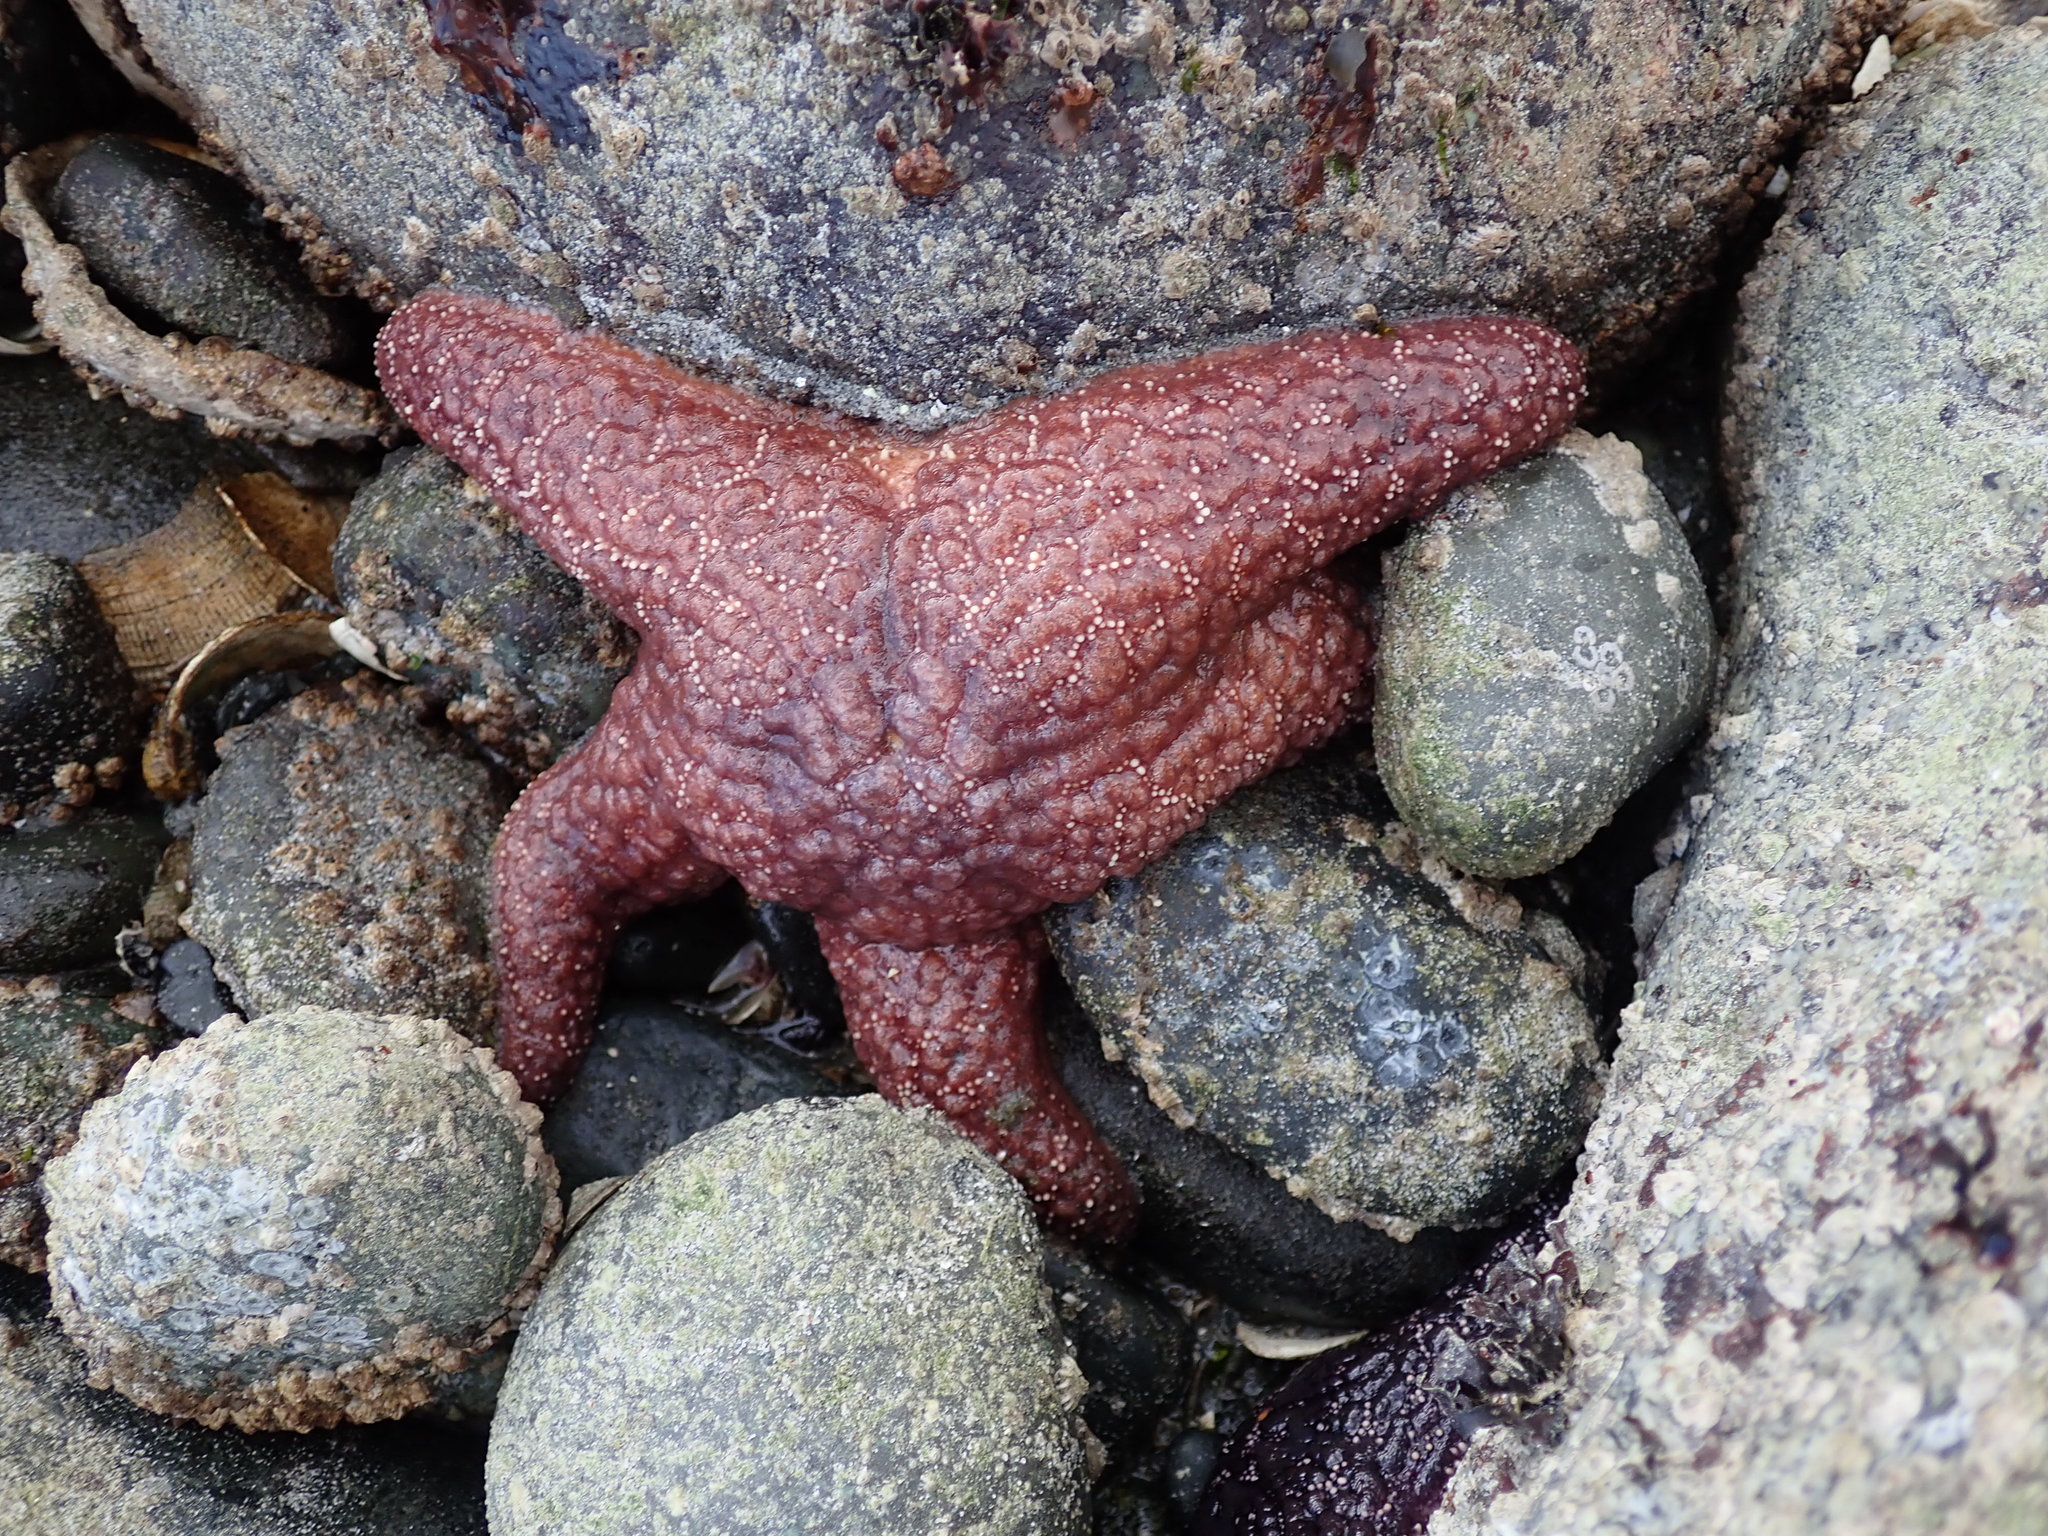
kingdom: Animalia
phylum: Echinodermata
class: Asteroidea
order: Forcipulatida
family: Asteriidae
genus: Pisaster
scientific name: Pisaster ochraceus
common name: Ochre stars
